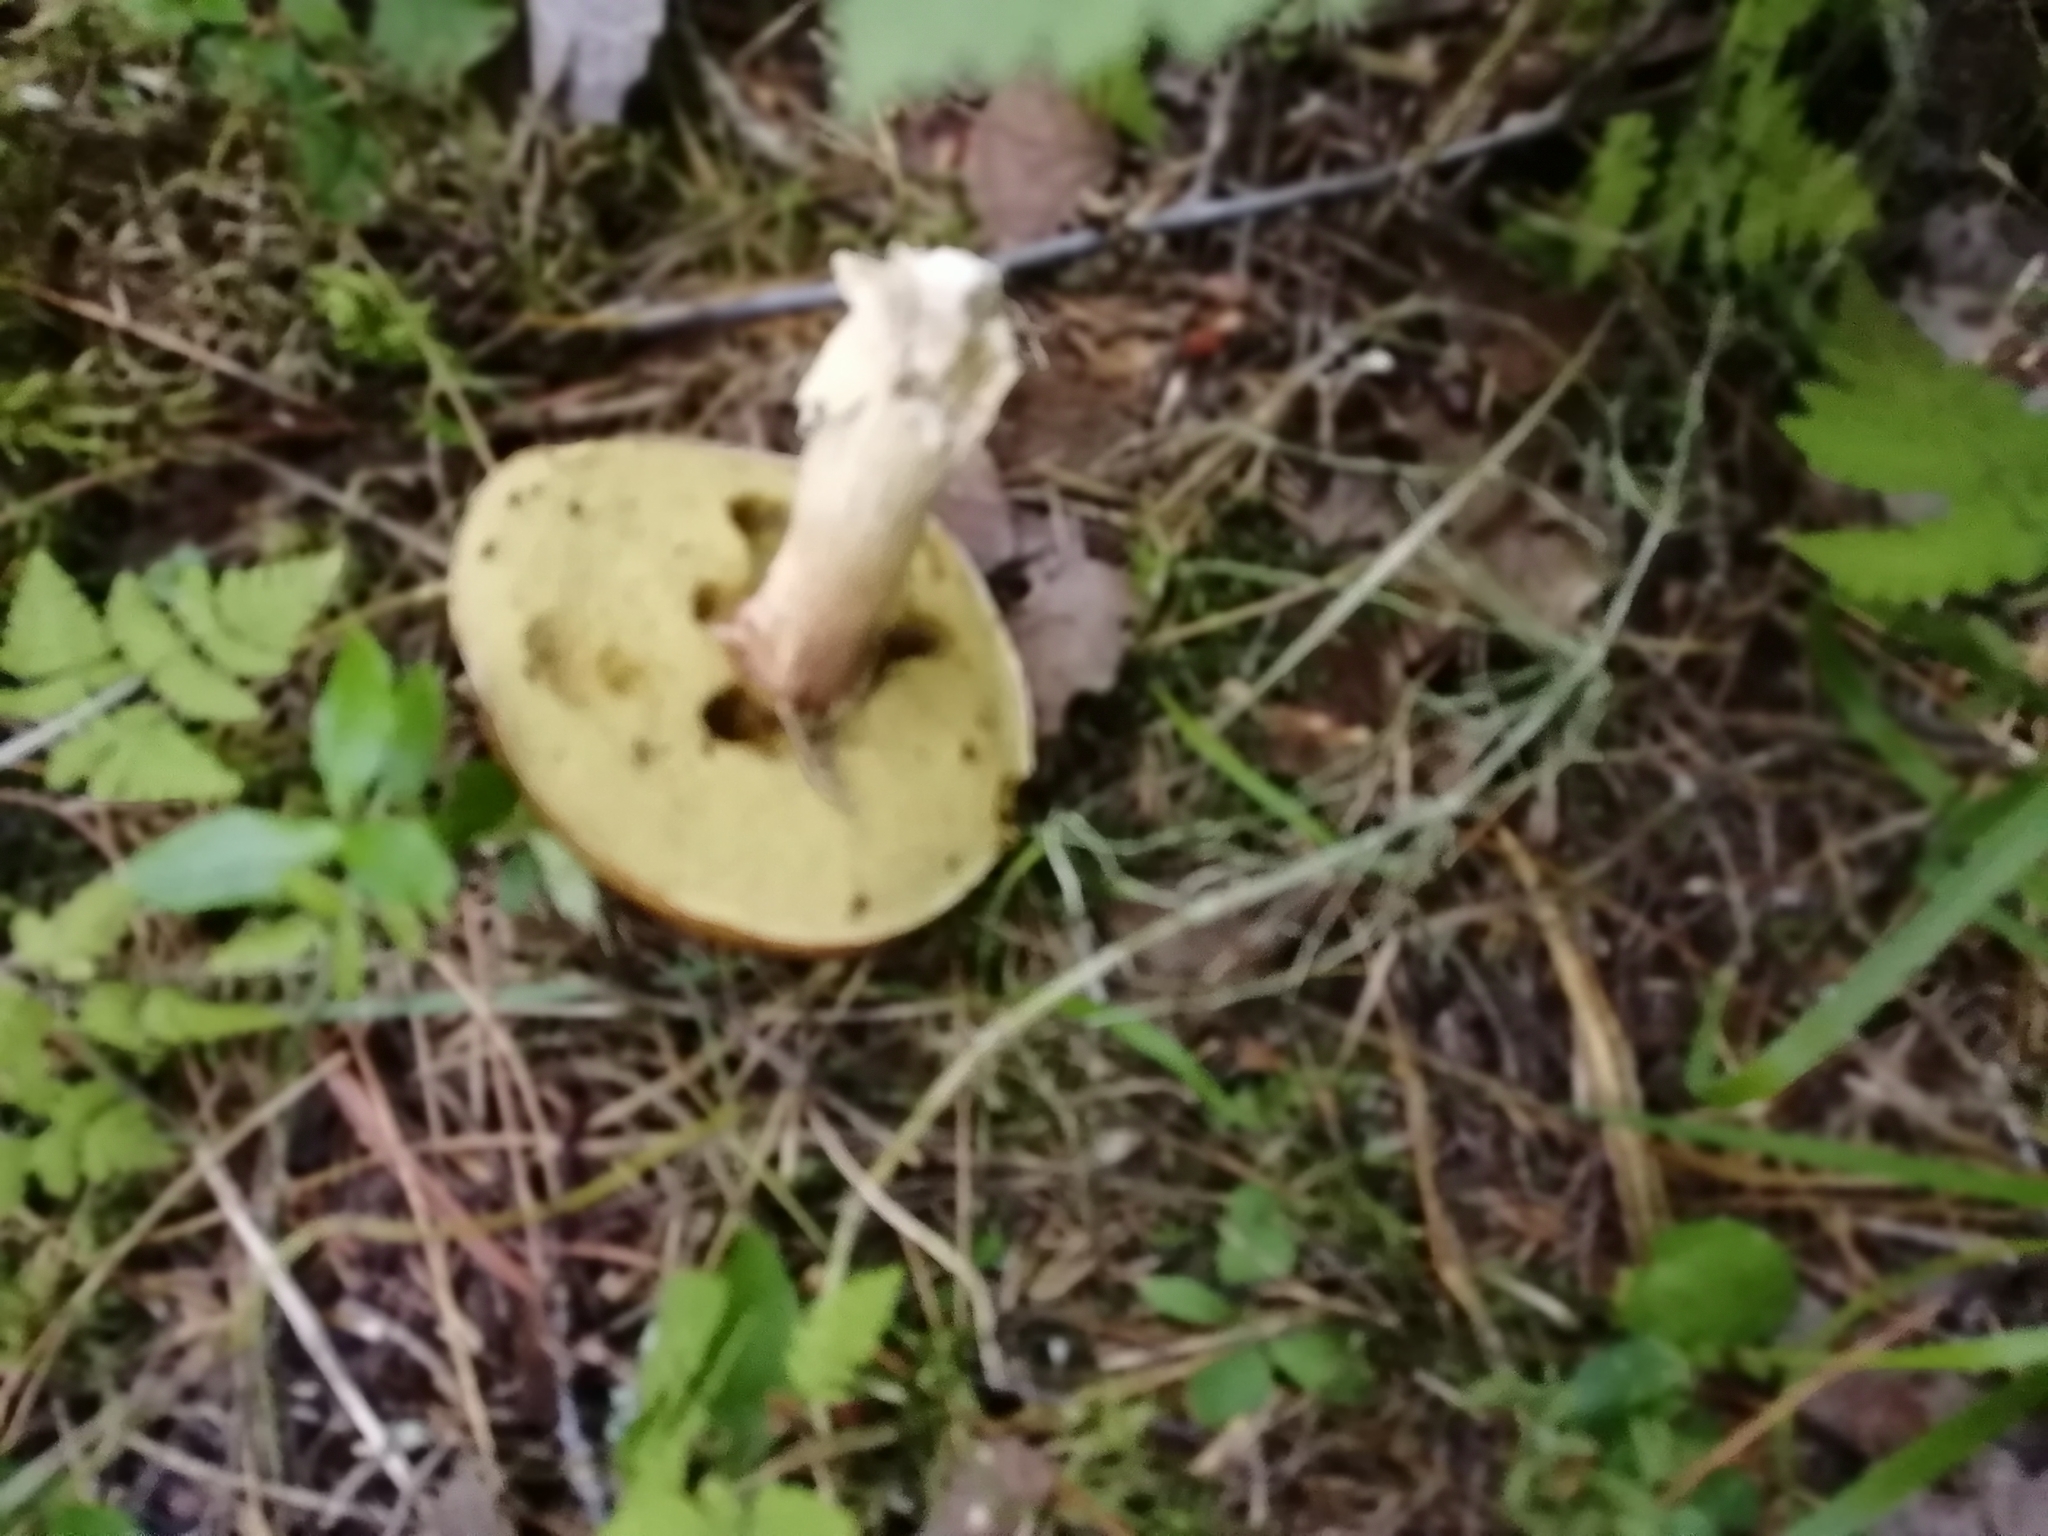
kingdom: Fungi
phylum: Basidiomycota
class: Agaricomycetes
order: Boletales
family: Boletaceae
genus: Boletus
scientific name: Boletus edulis
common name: Cep
